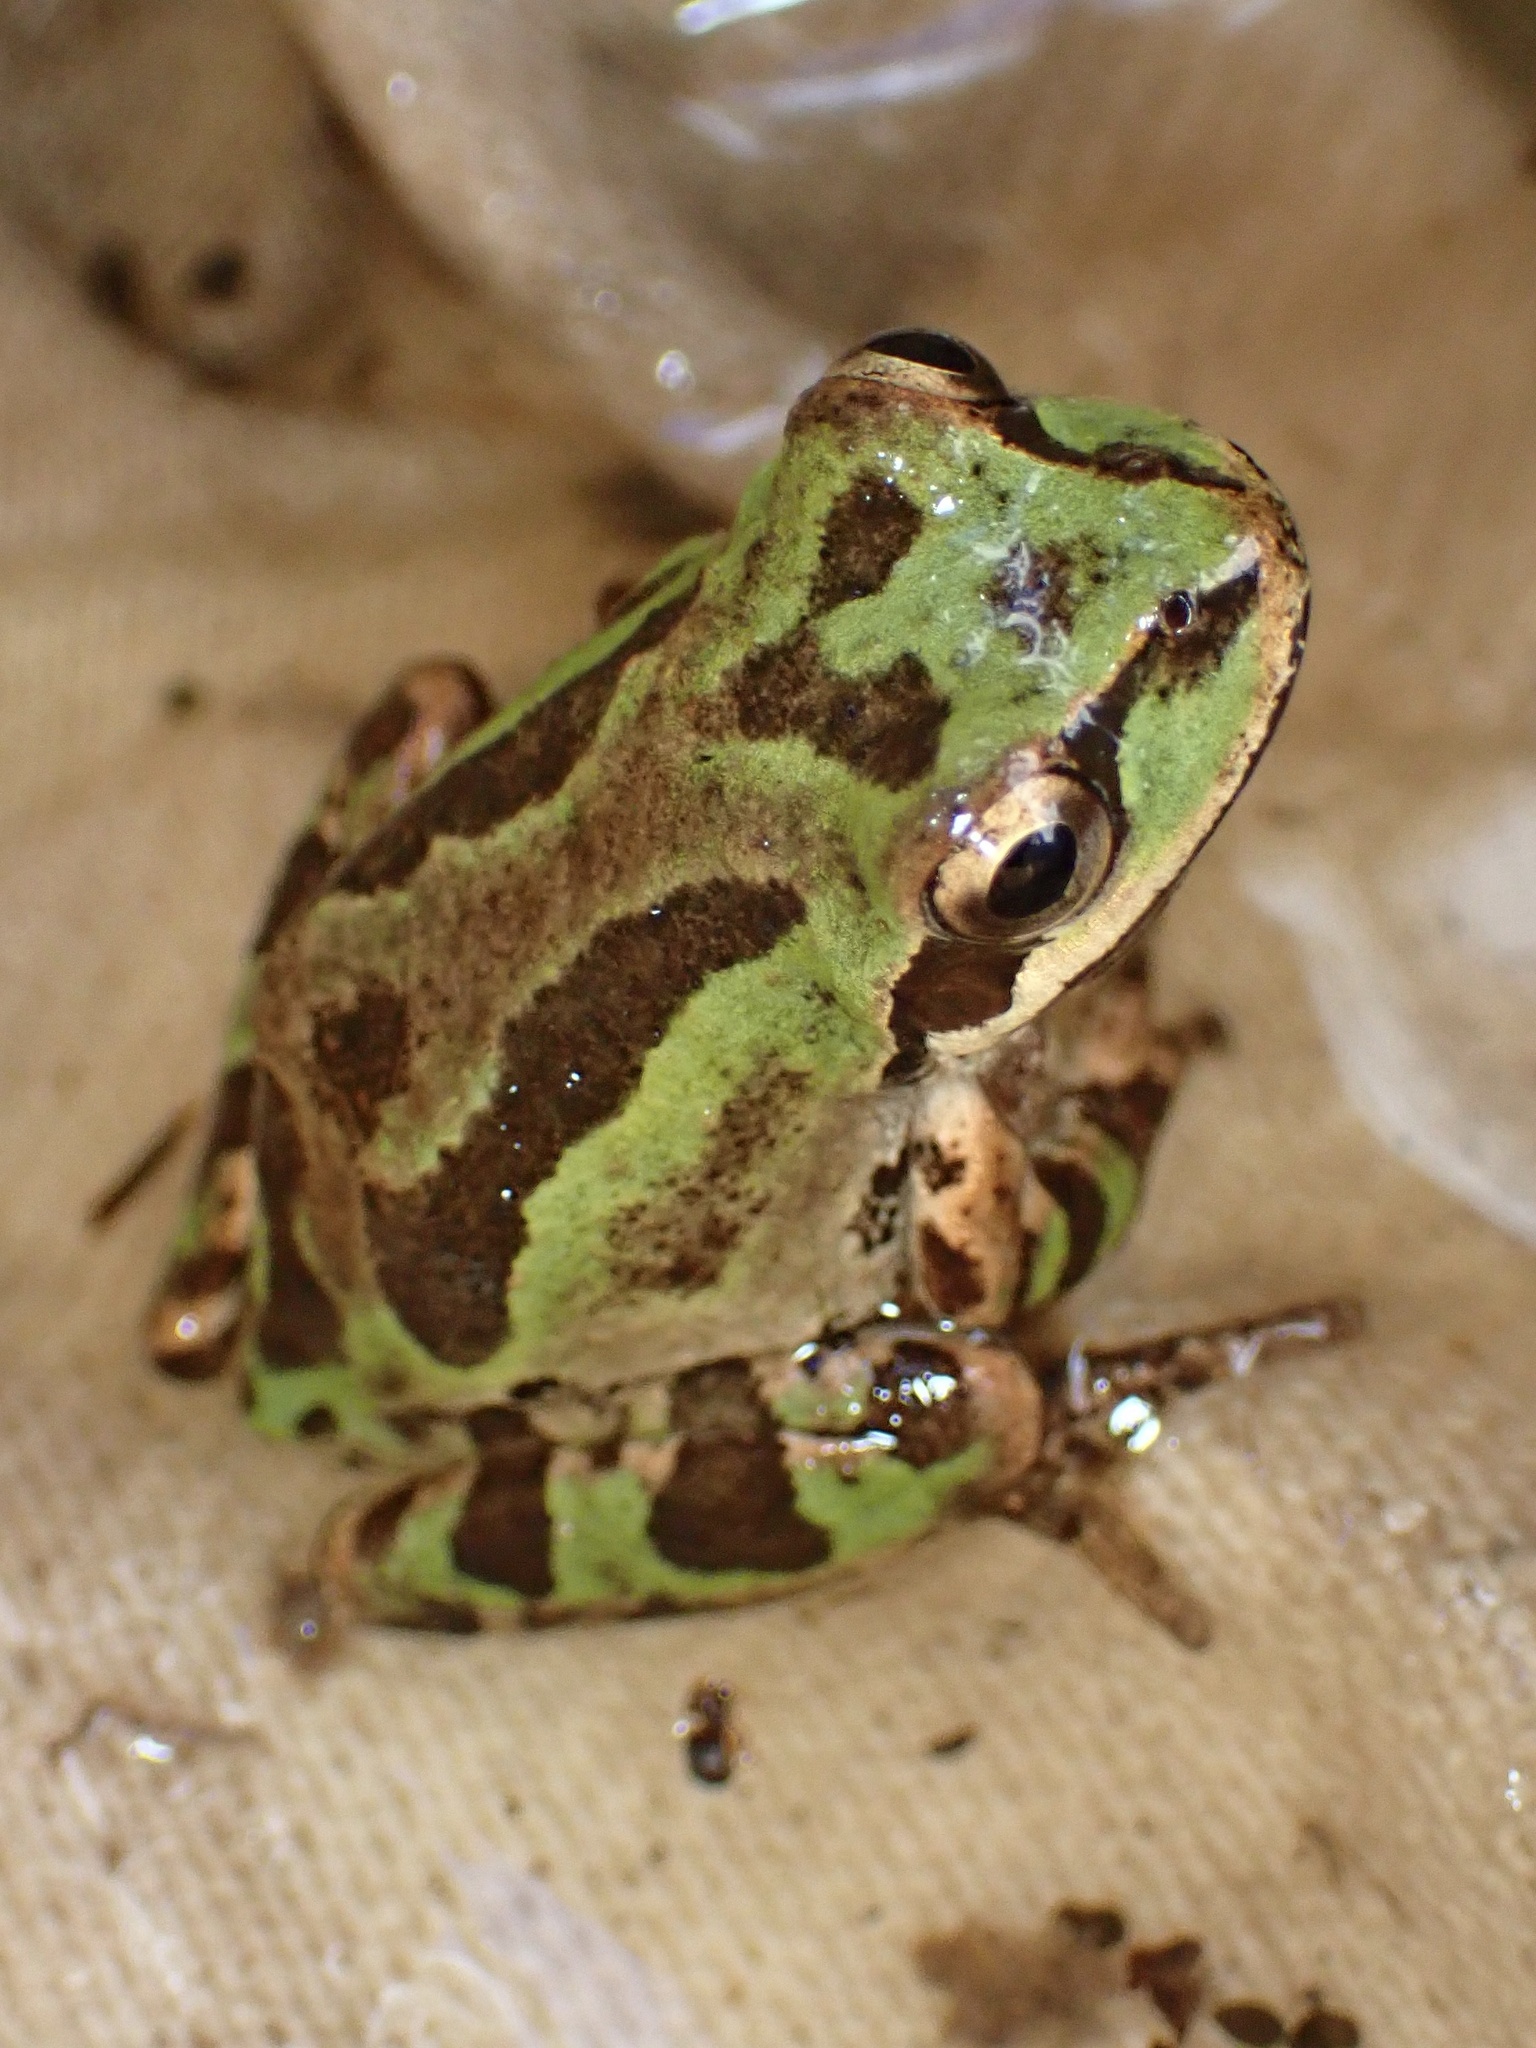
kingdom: Animalia
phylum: Chordata
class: Amphibia
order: Anura
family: Hylidae
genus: Pseudacris
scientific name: Pseudacris regilla
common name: Pacific chorus frog
